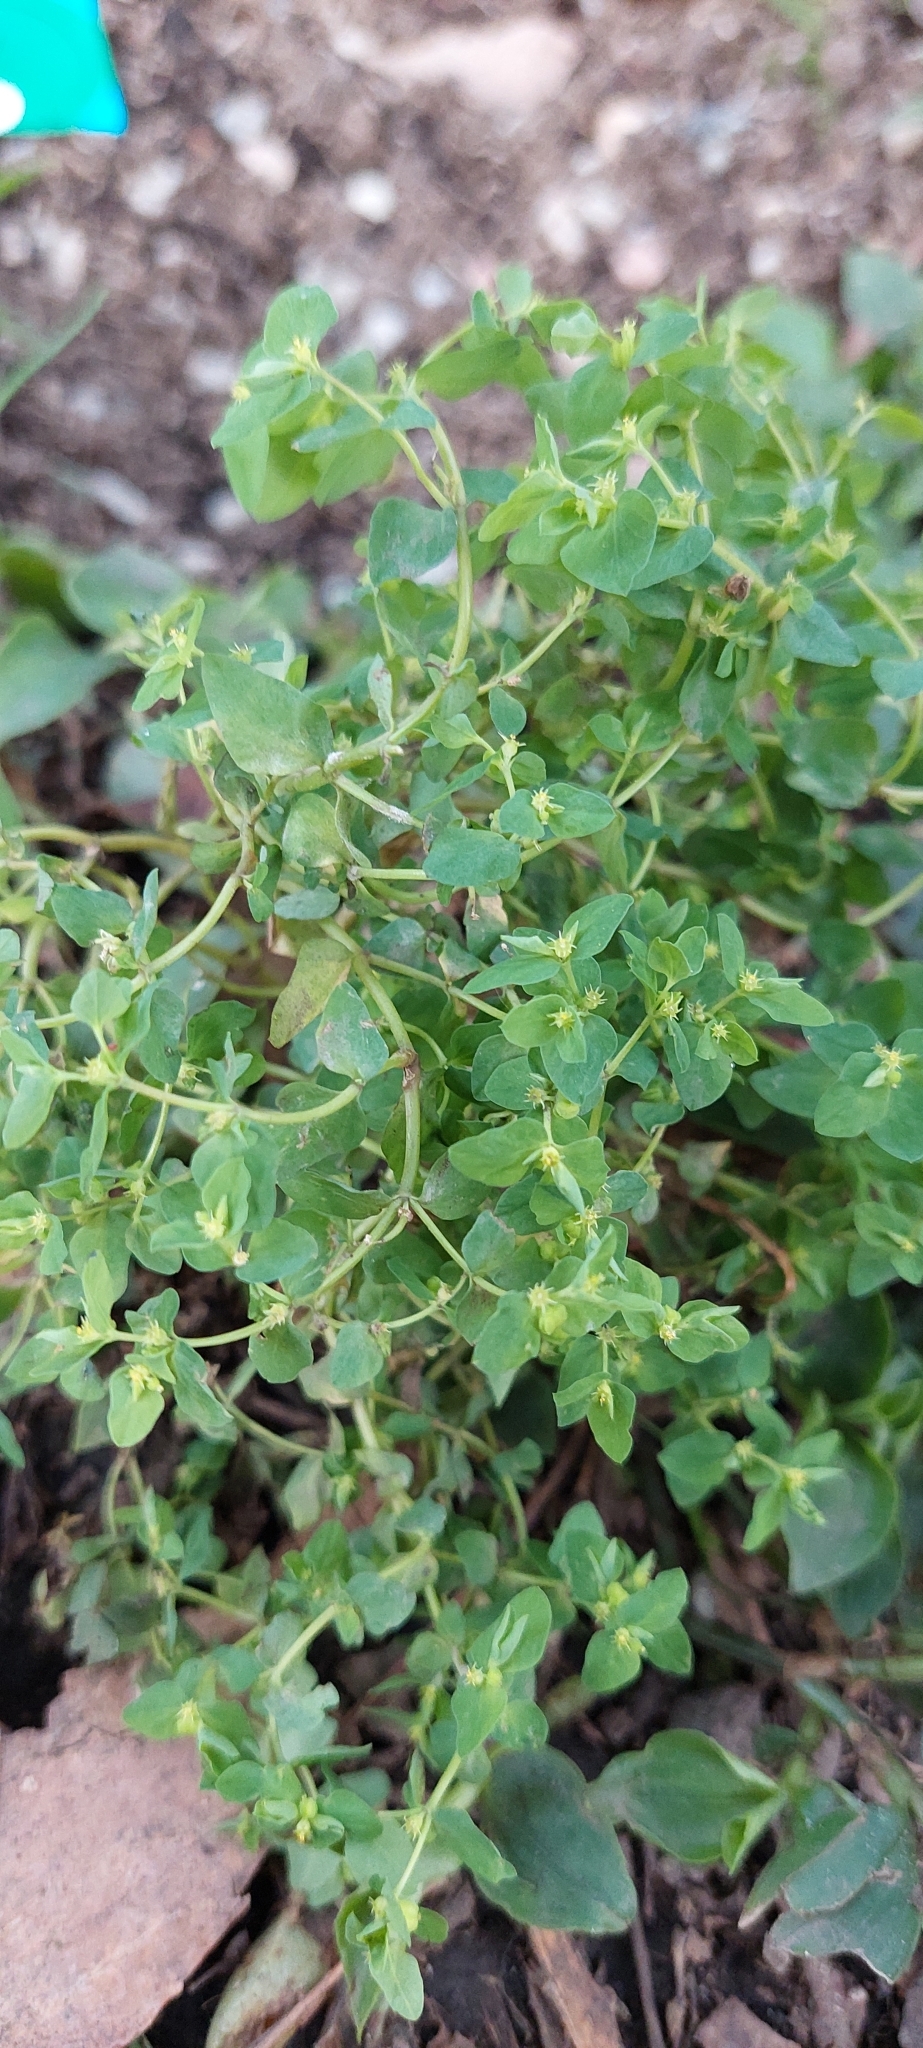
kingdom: Plantae
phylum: Tracheophyta
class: Magnoliopsida
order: Malpighiales
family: Euphorbiaceae
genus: Euphorbia
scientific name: Euphorbia peplus
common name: Petty spurge
